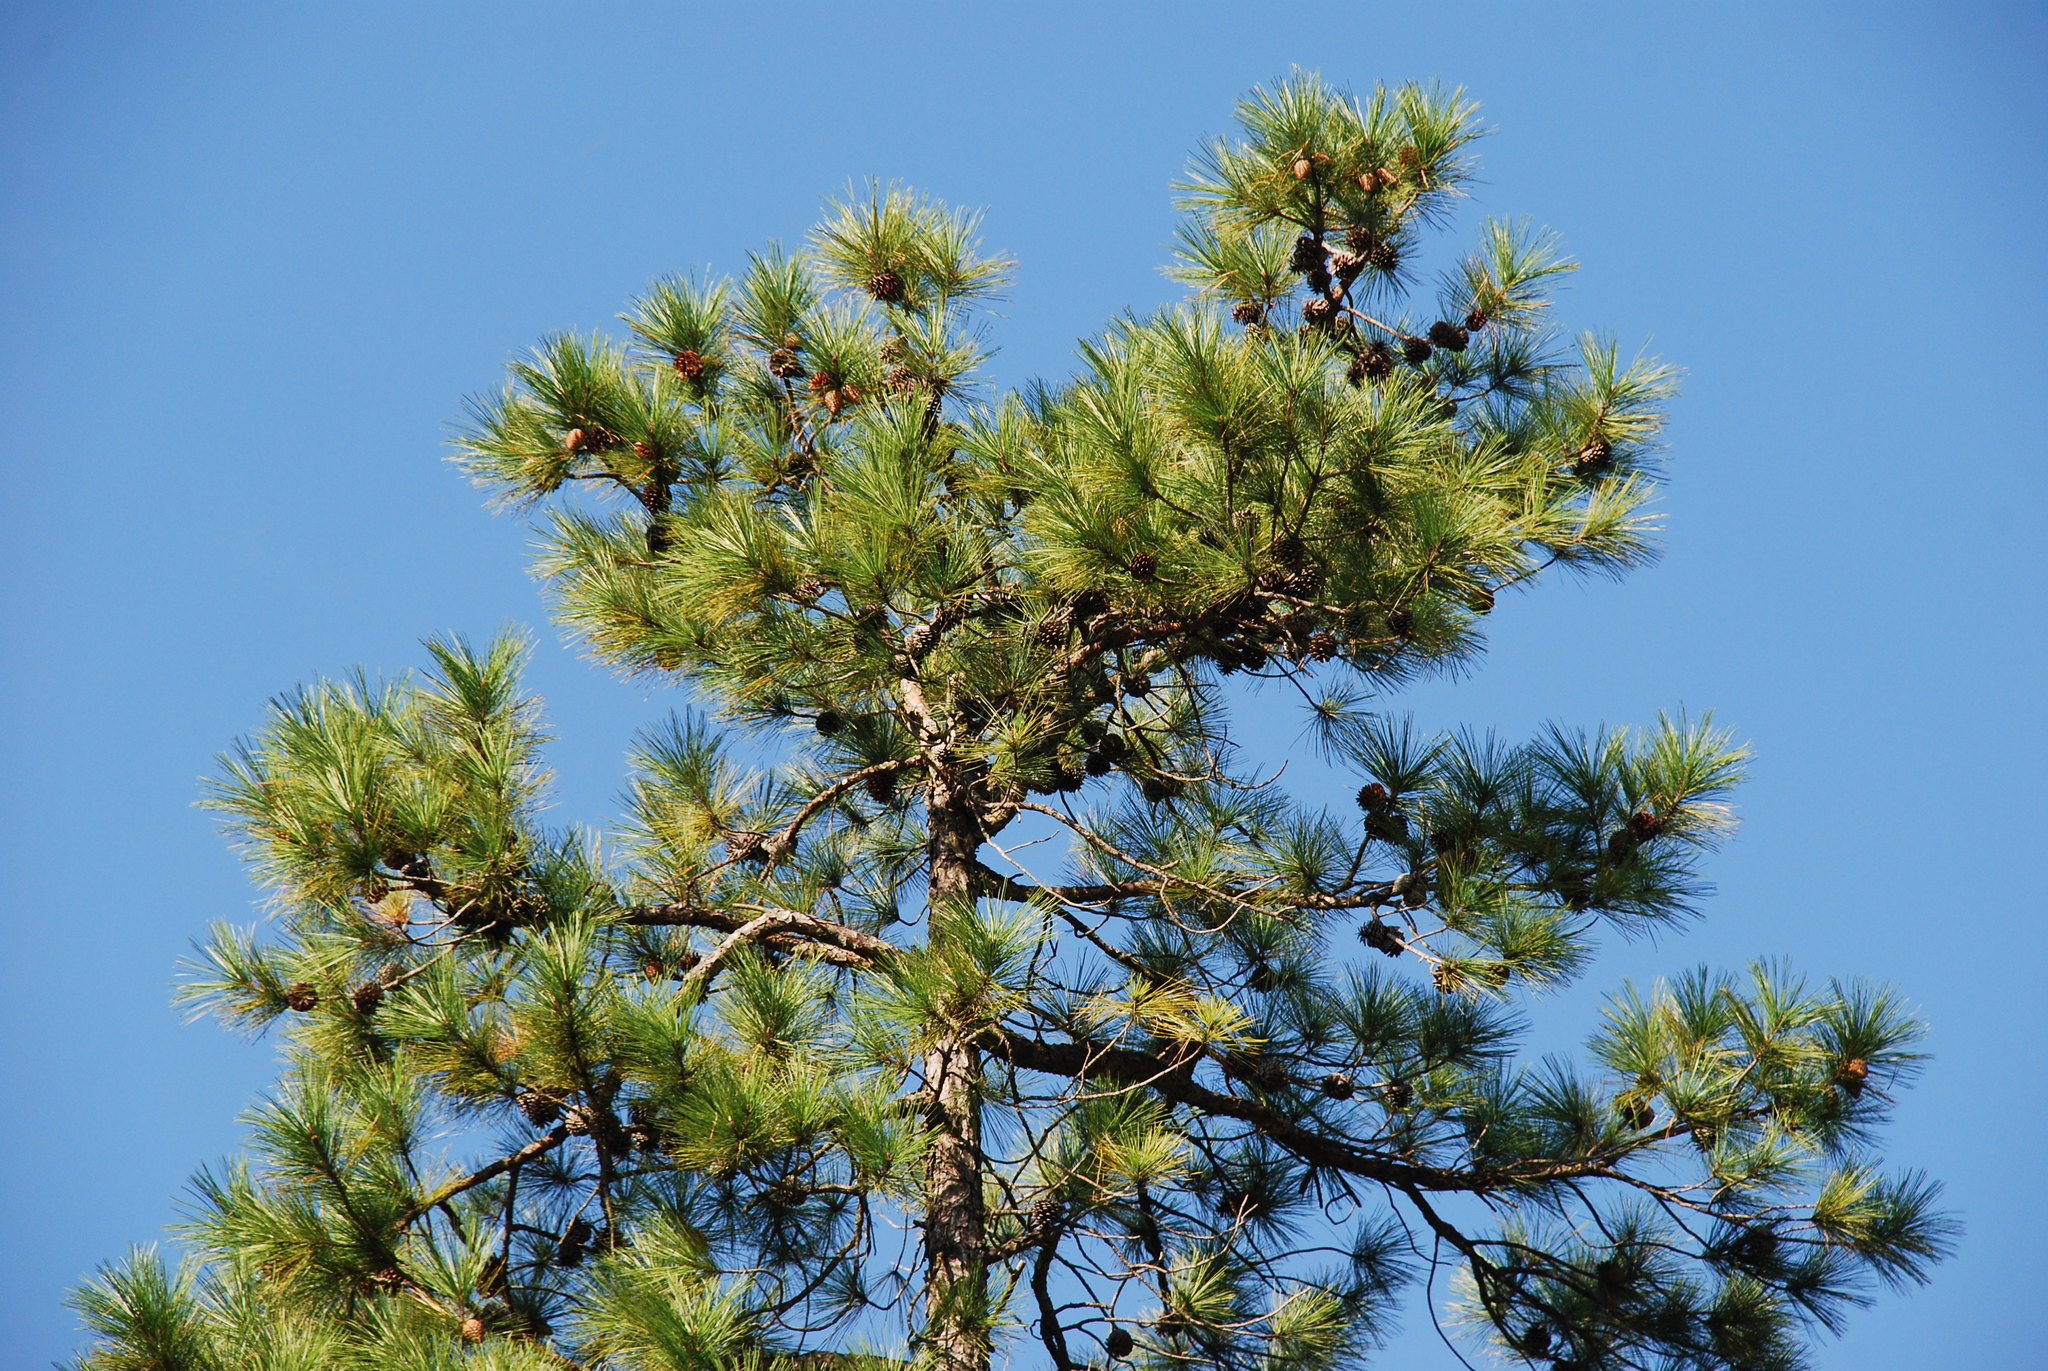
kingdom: Plantae
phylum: Tracheophyta
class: Pinopsida
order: Pinales
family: Pinaceae
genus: Pinus
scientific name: Pinus serotina
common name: Marsh pine
